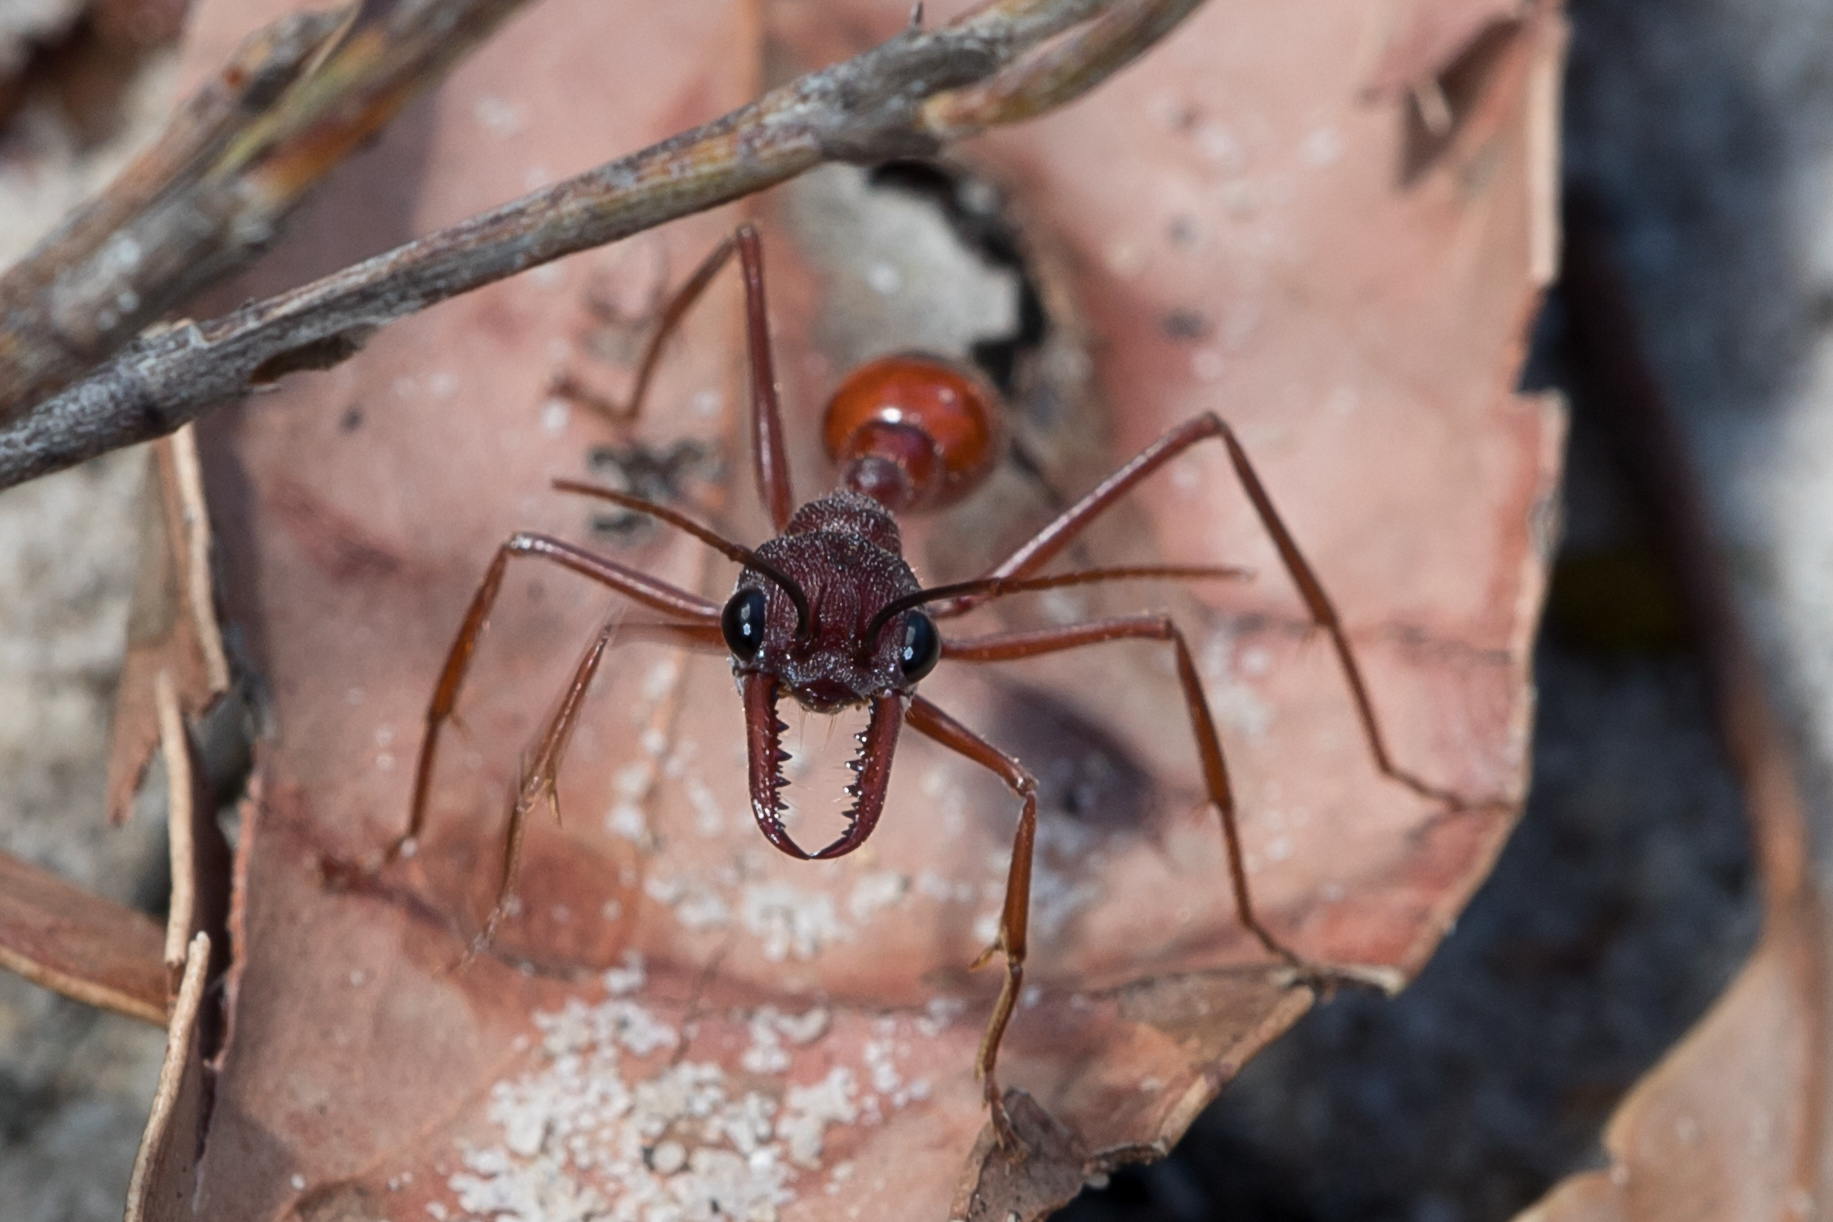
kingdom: Animalia
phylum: Arthropoda
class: Insecta
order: Hymenoptera
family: Formicidae
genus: Myrmecia
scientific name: Myrmecia nigriscapa
